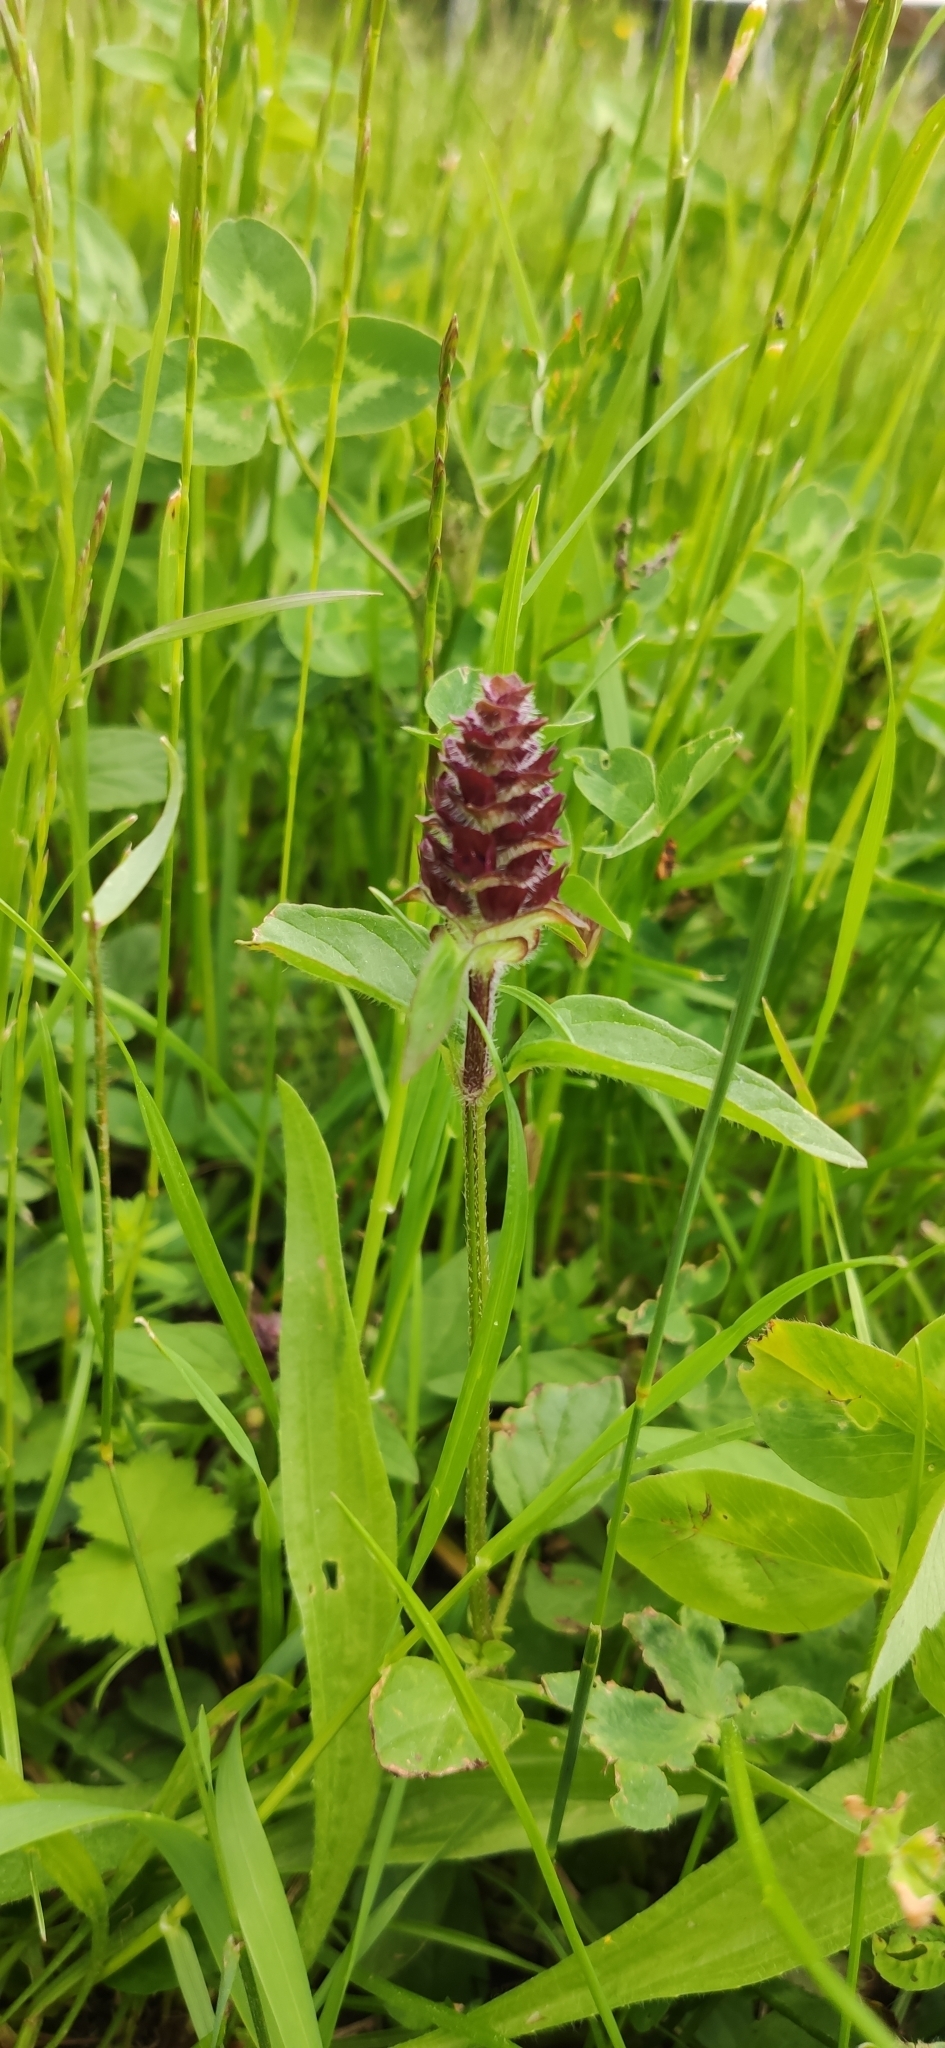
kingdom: Plantae
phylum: Tracheophyta
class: Magnoliopsida
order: Lamiales
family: Lamiaceae
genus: Prunella
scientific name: Prunella vulgaris
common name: Heal-all
